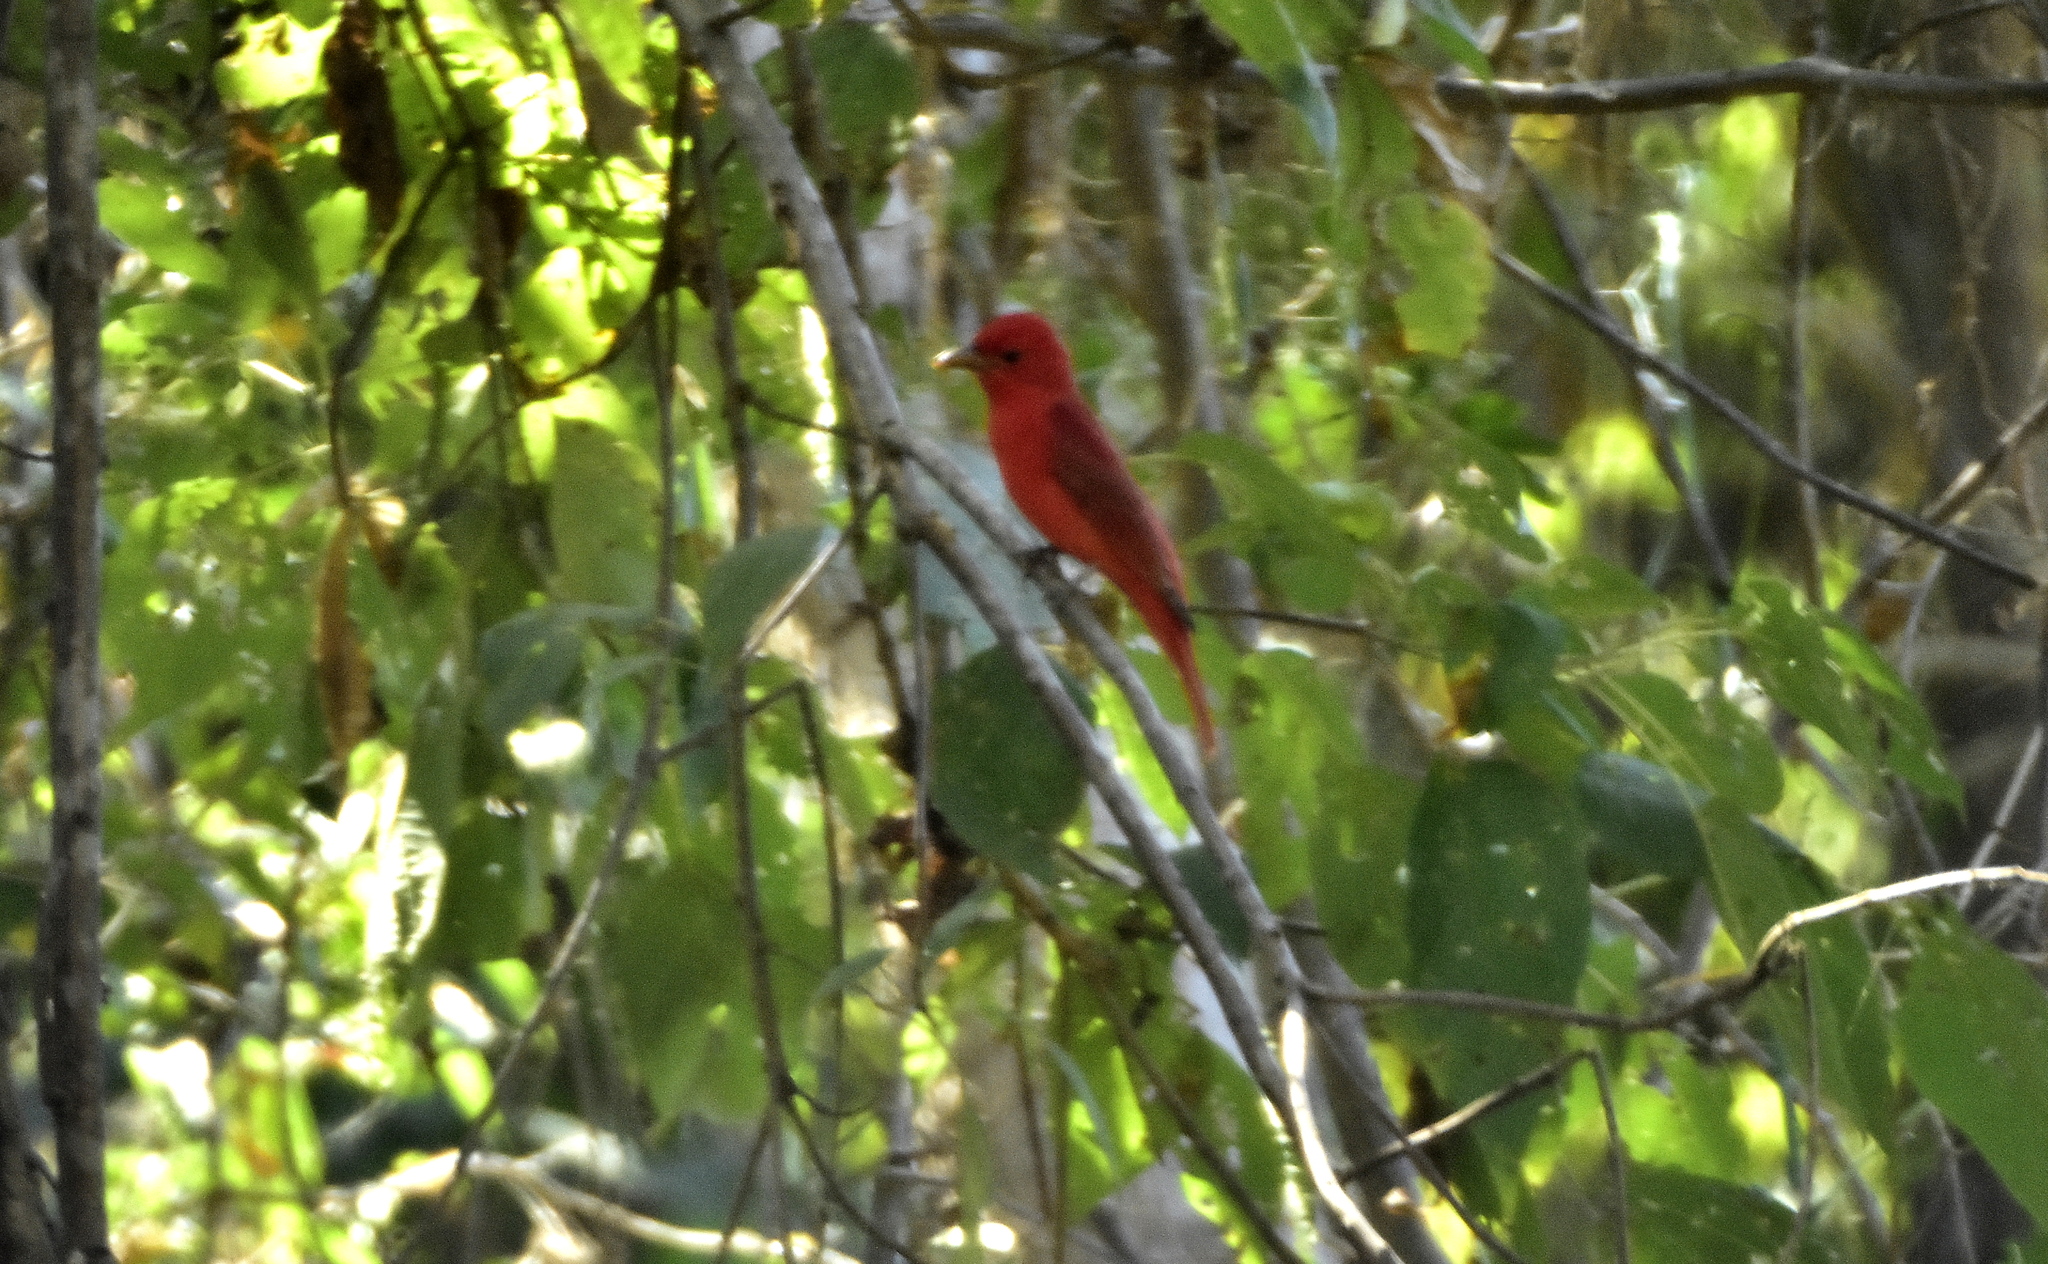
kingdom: Animalia
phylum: Chordata
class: Aves
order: Passeriformes
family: Cardinalidae
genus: Piranga
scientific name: Piranga rubra
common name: Summer tanager
